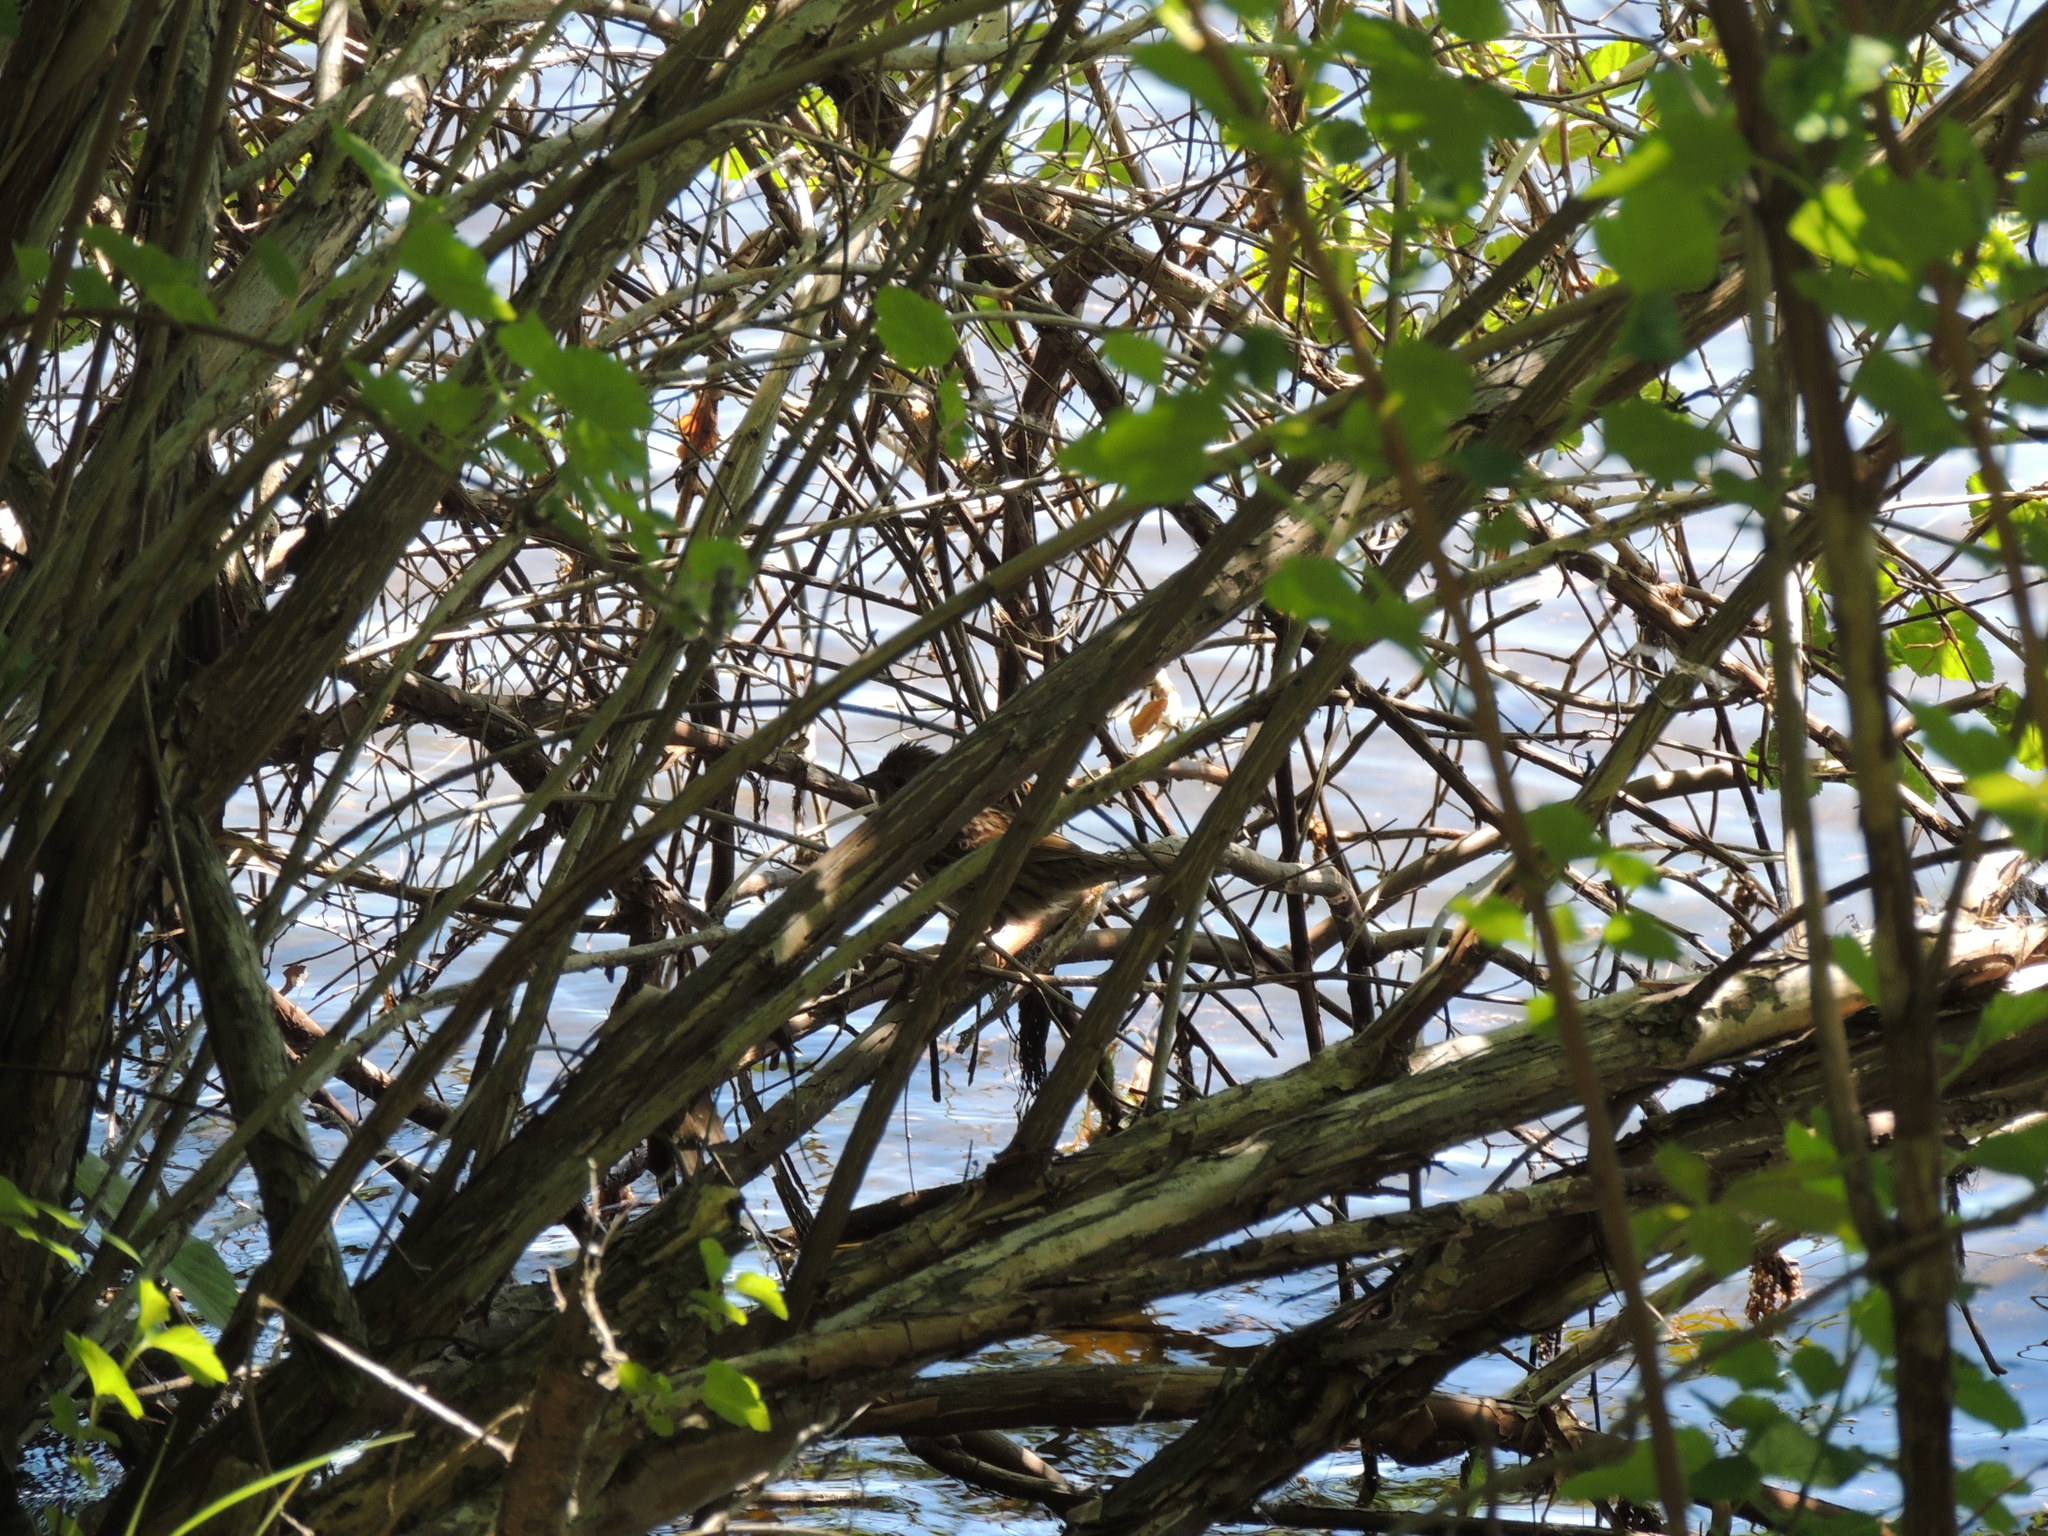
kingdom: Animalia
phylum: Chordata
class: Aves
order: Passeriformes
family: Passerellidae
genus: Melospiza
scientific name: Melospiza melodia
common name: Song sparrow
